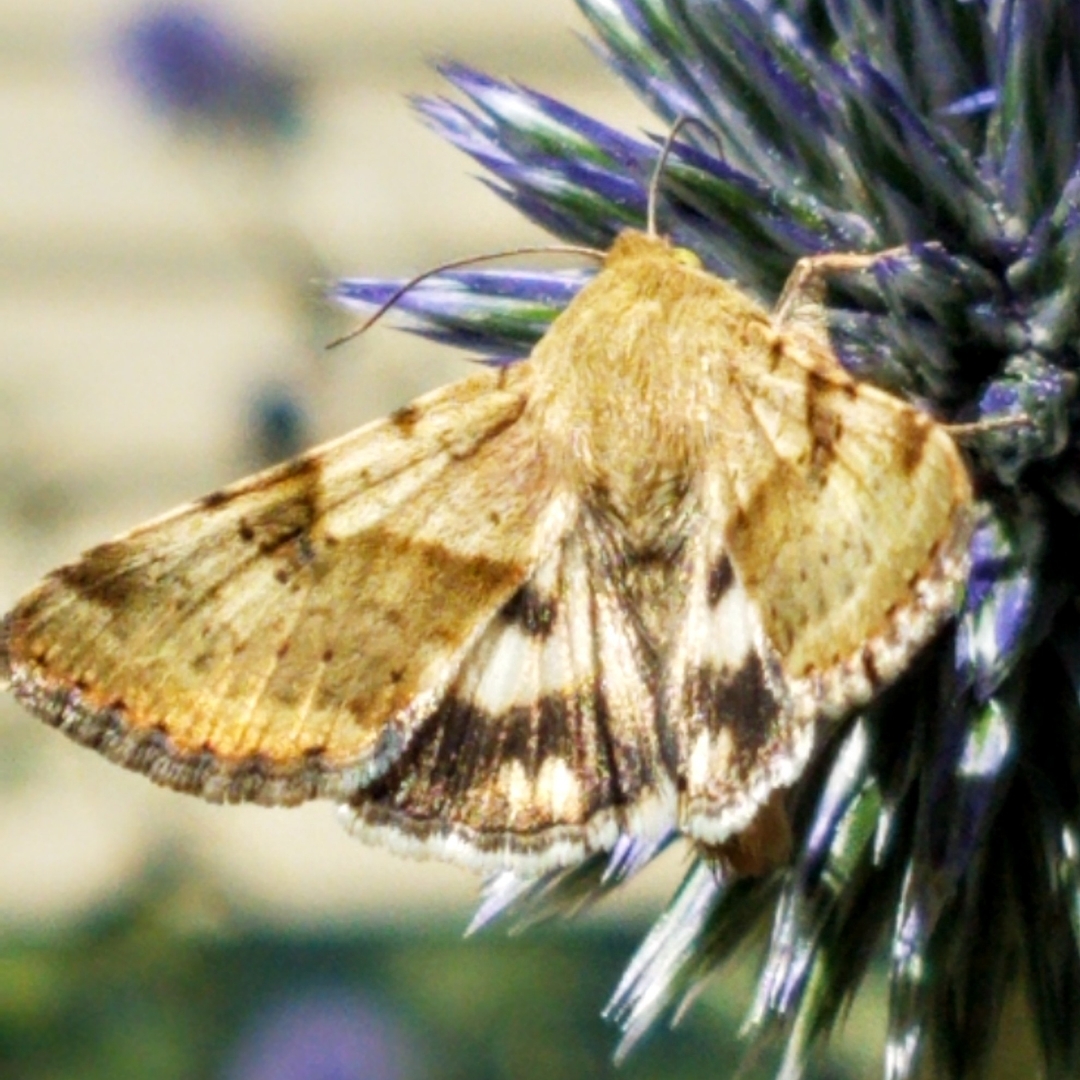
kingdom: Animalia
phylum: Arthropoda
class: Insecta
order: Lepidoptera
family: Noctuidae
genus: Heliothis
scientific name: Heliothis phloxiphaga
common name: Darker spotted straw moth
